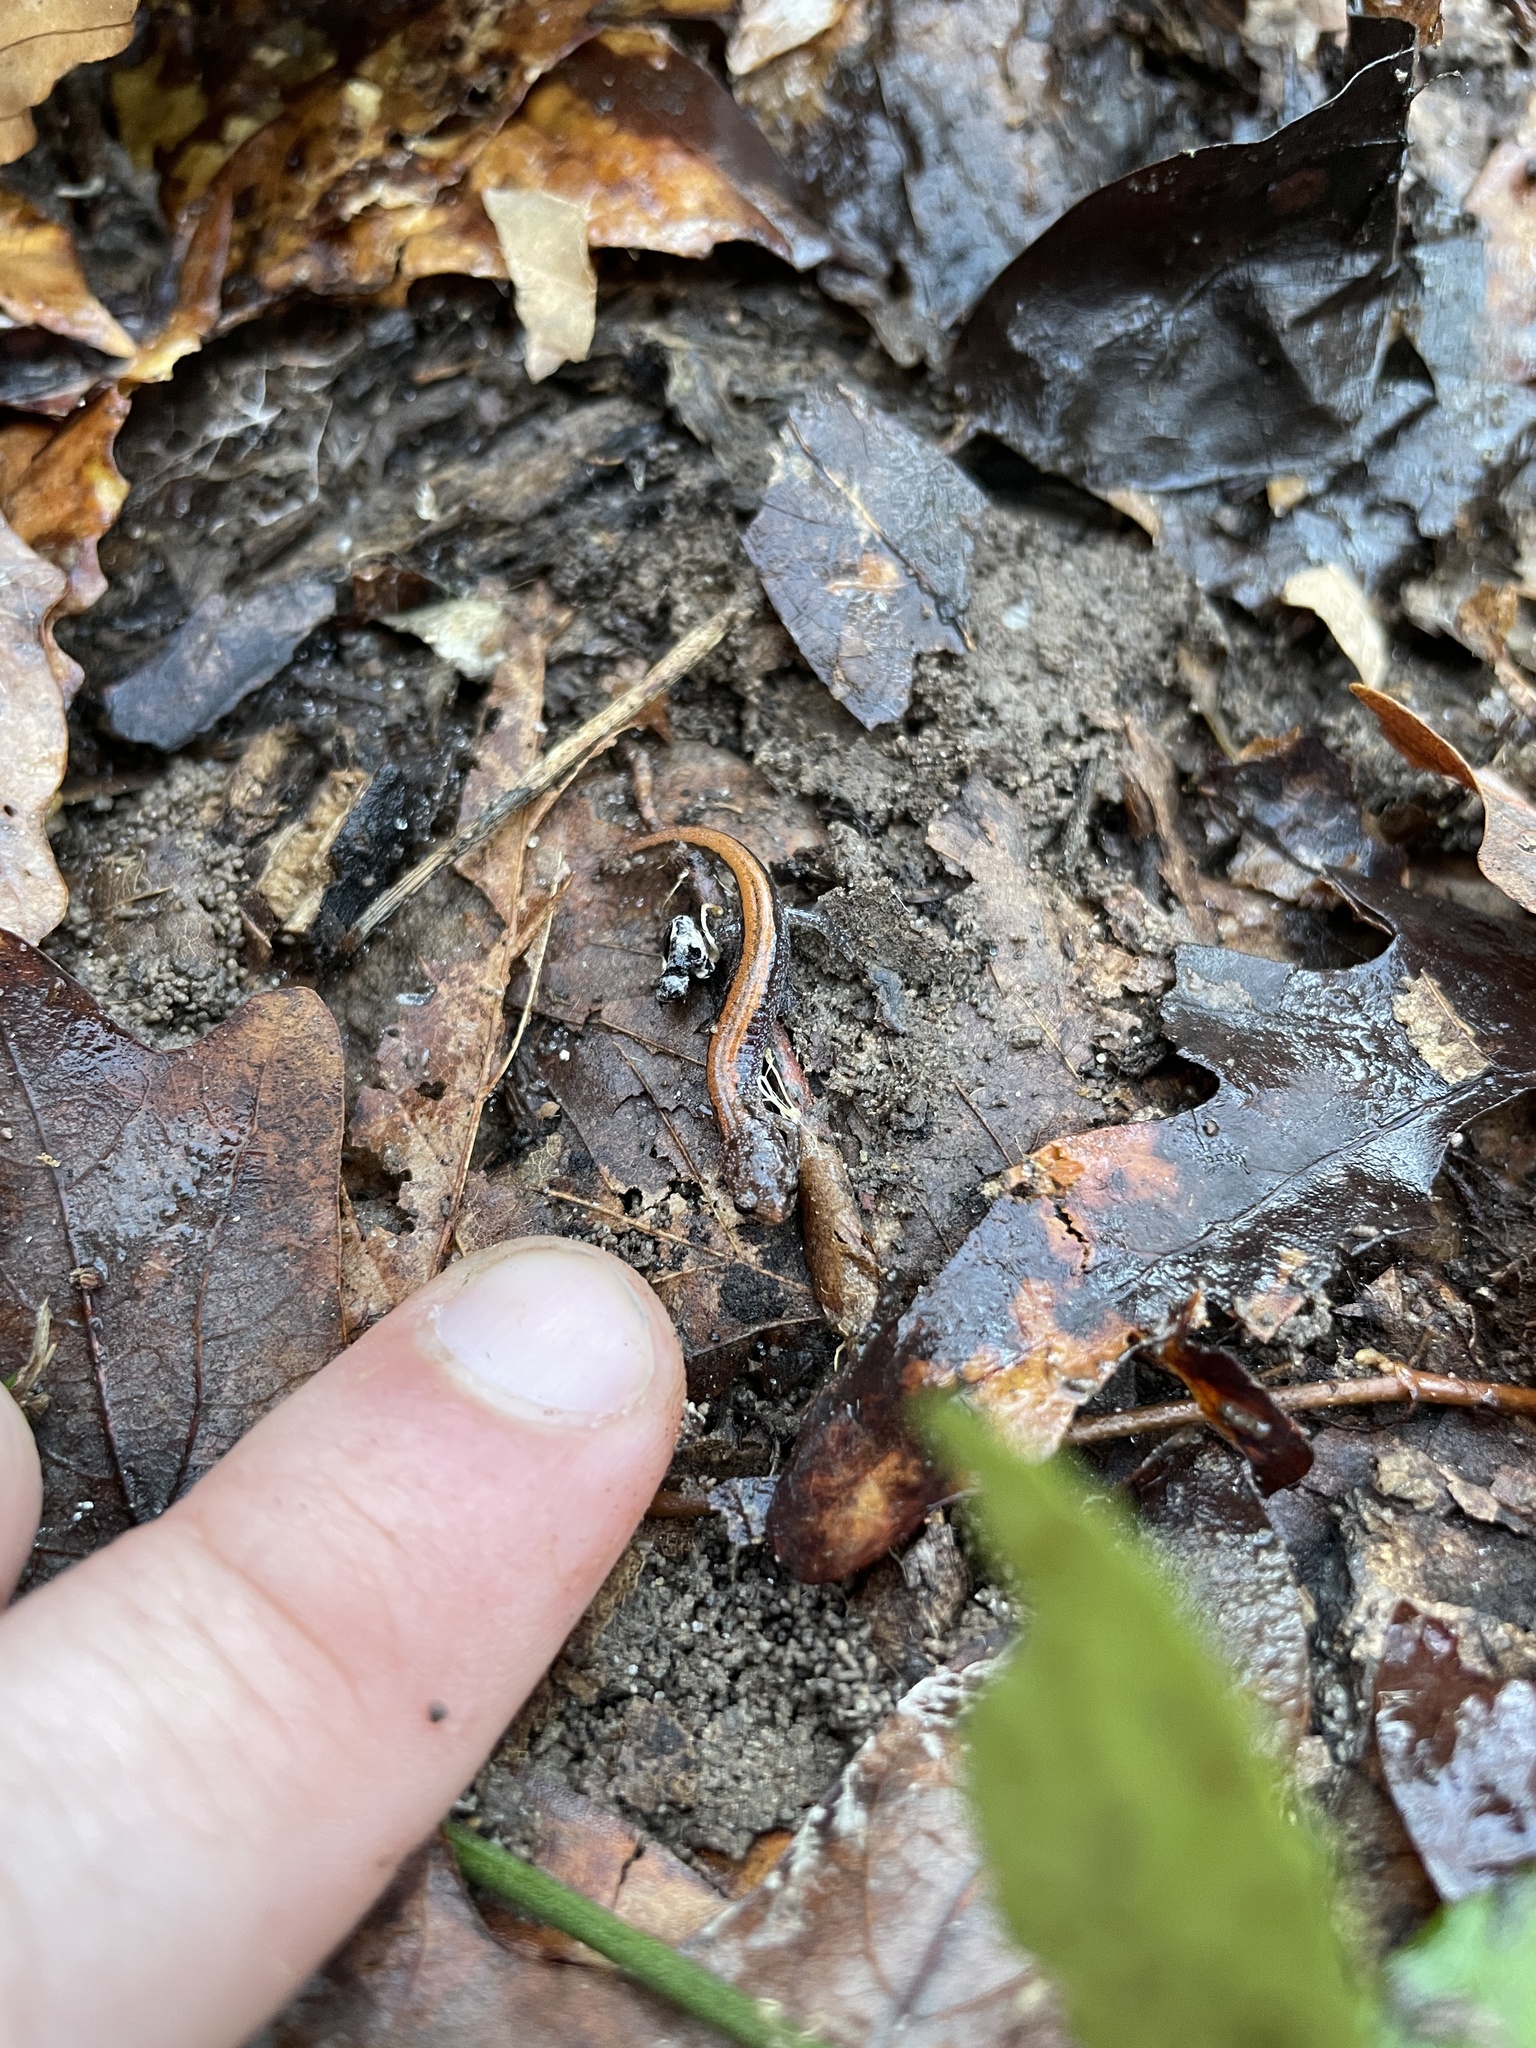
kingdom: Animalia
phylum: Chordata
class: Amphibia
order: Caudata
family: Plethodontidae
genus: Plethodon
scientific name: Plethodon websteri
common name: Webster's salamander
